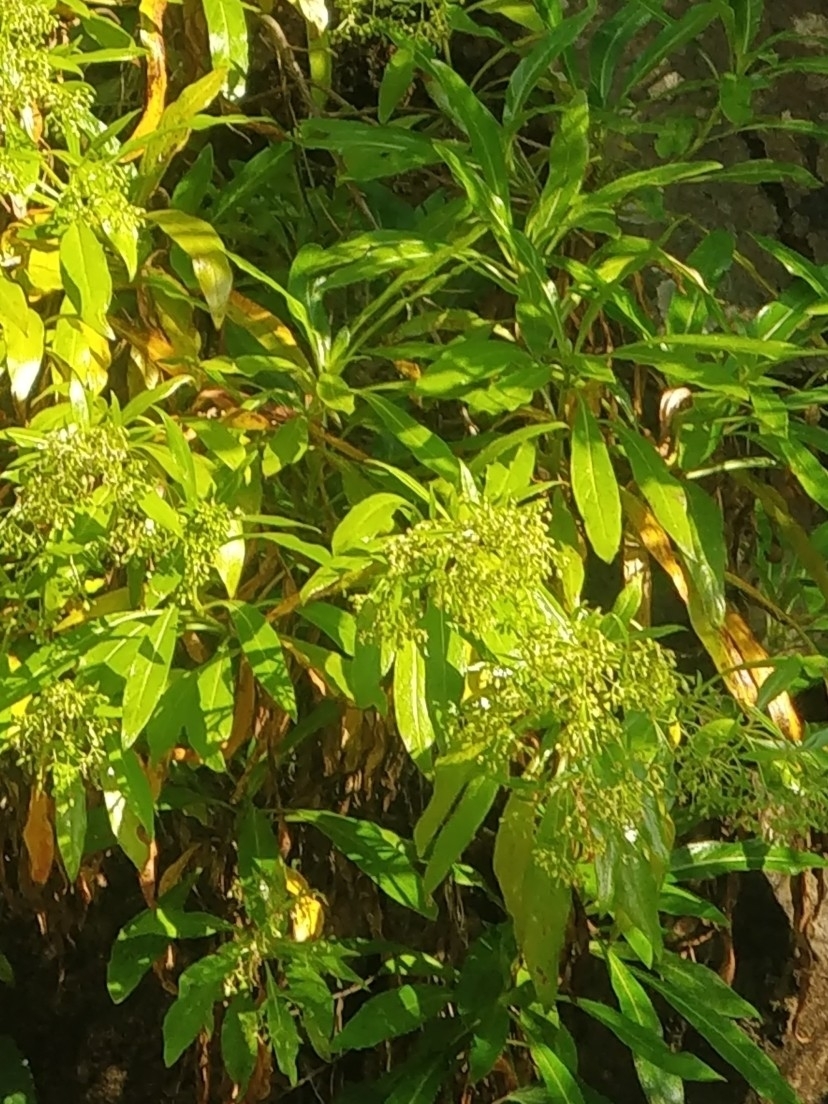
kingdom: Plantae
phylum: Tracheophyta
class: Magnoliopsida
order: Gentianales
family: Rubiaceae
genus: Phyllis
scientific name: Phyllis nobla
